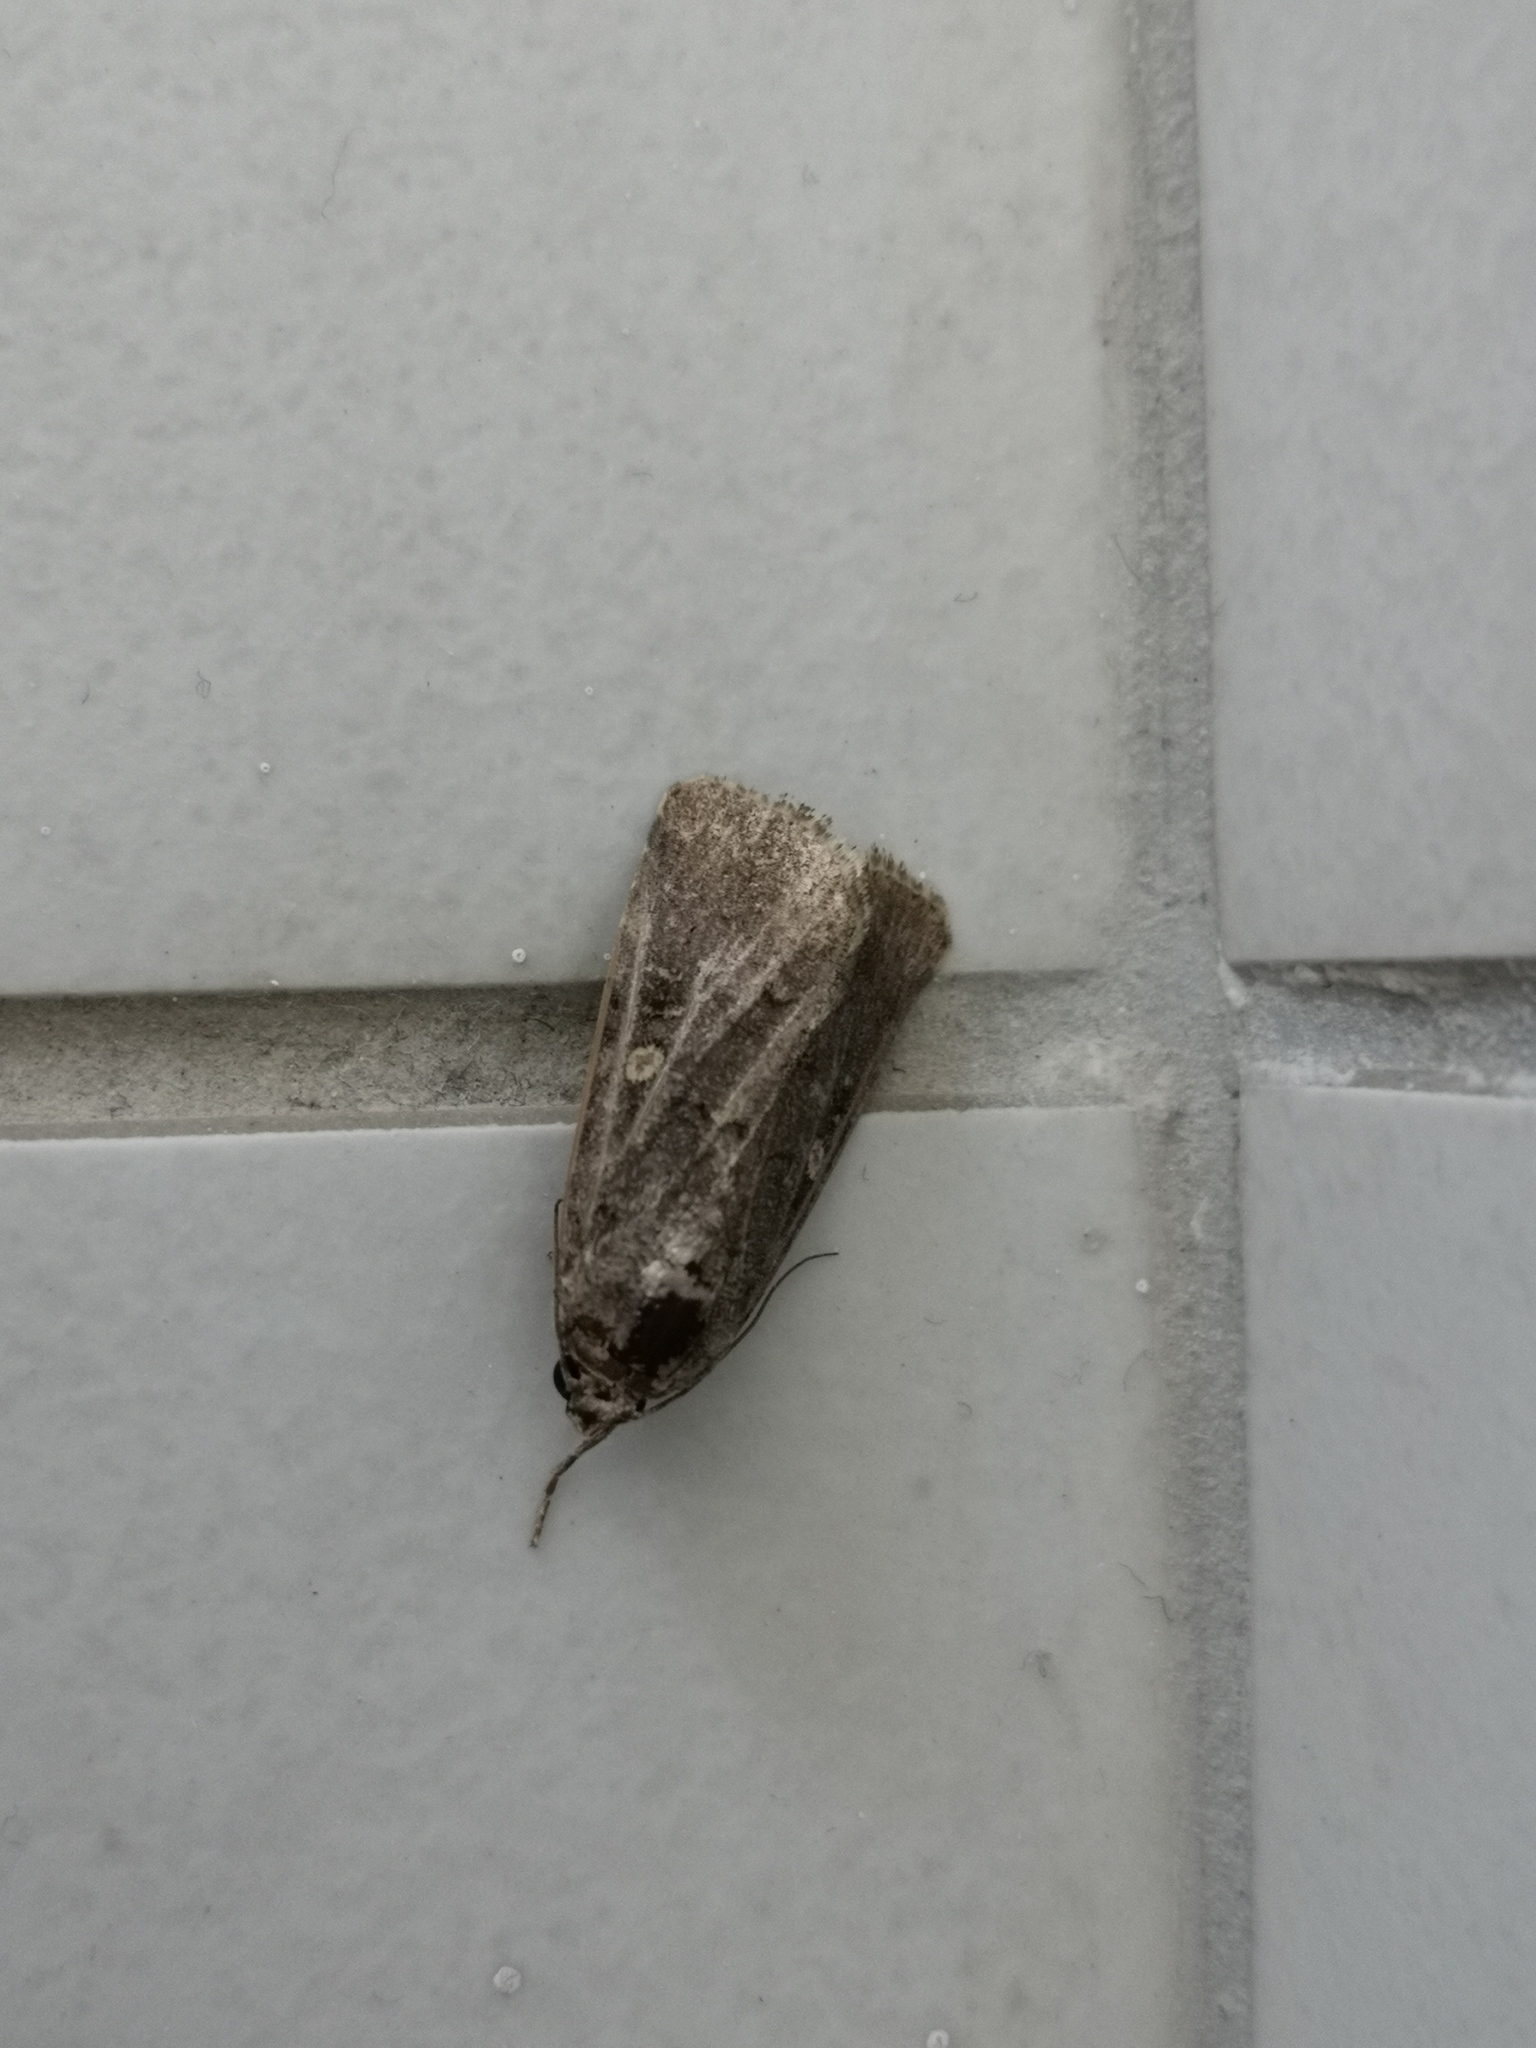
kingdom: Animalia
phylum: Arthropoda
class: Insecta
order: Lepidoptera
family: Noctuidae
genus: Spodoptera
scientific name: Spodoptera cilium
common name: Dark mottled willow
